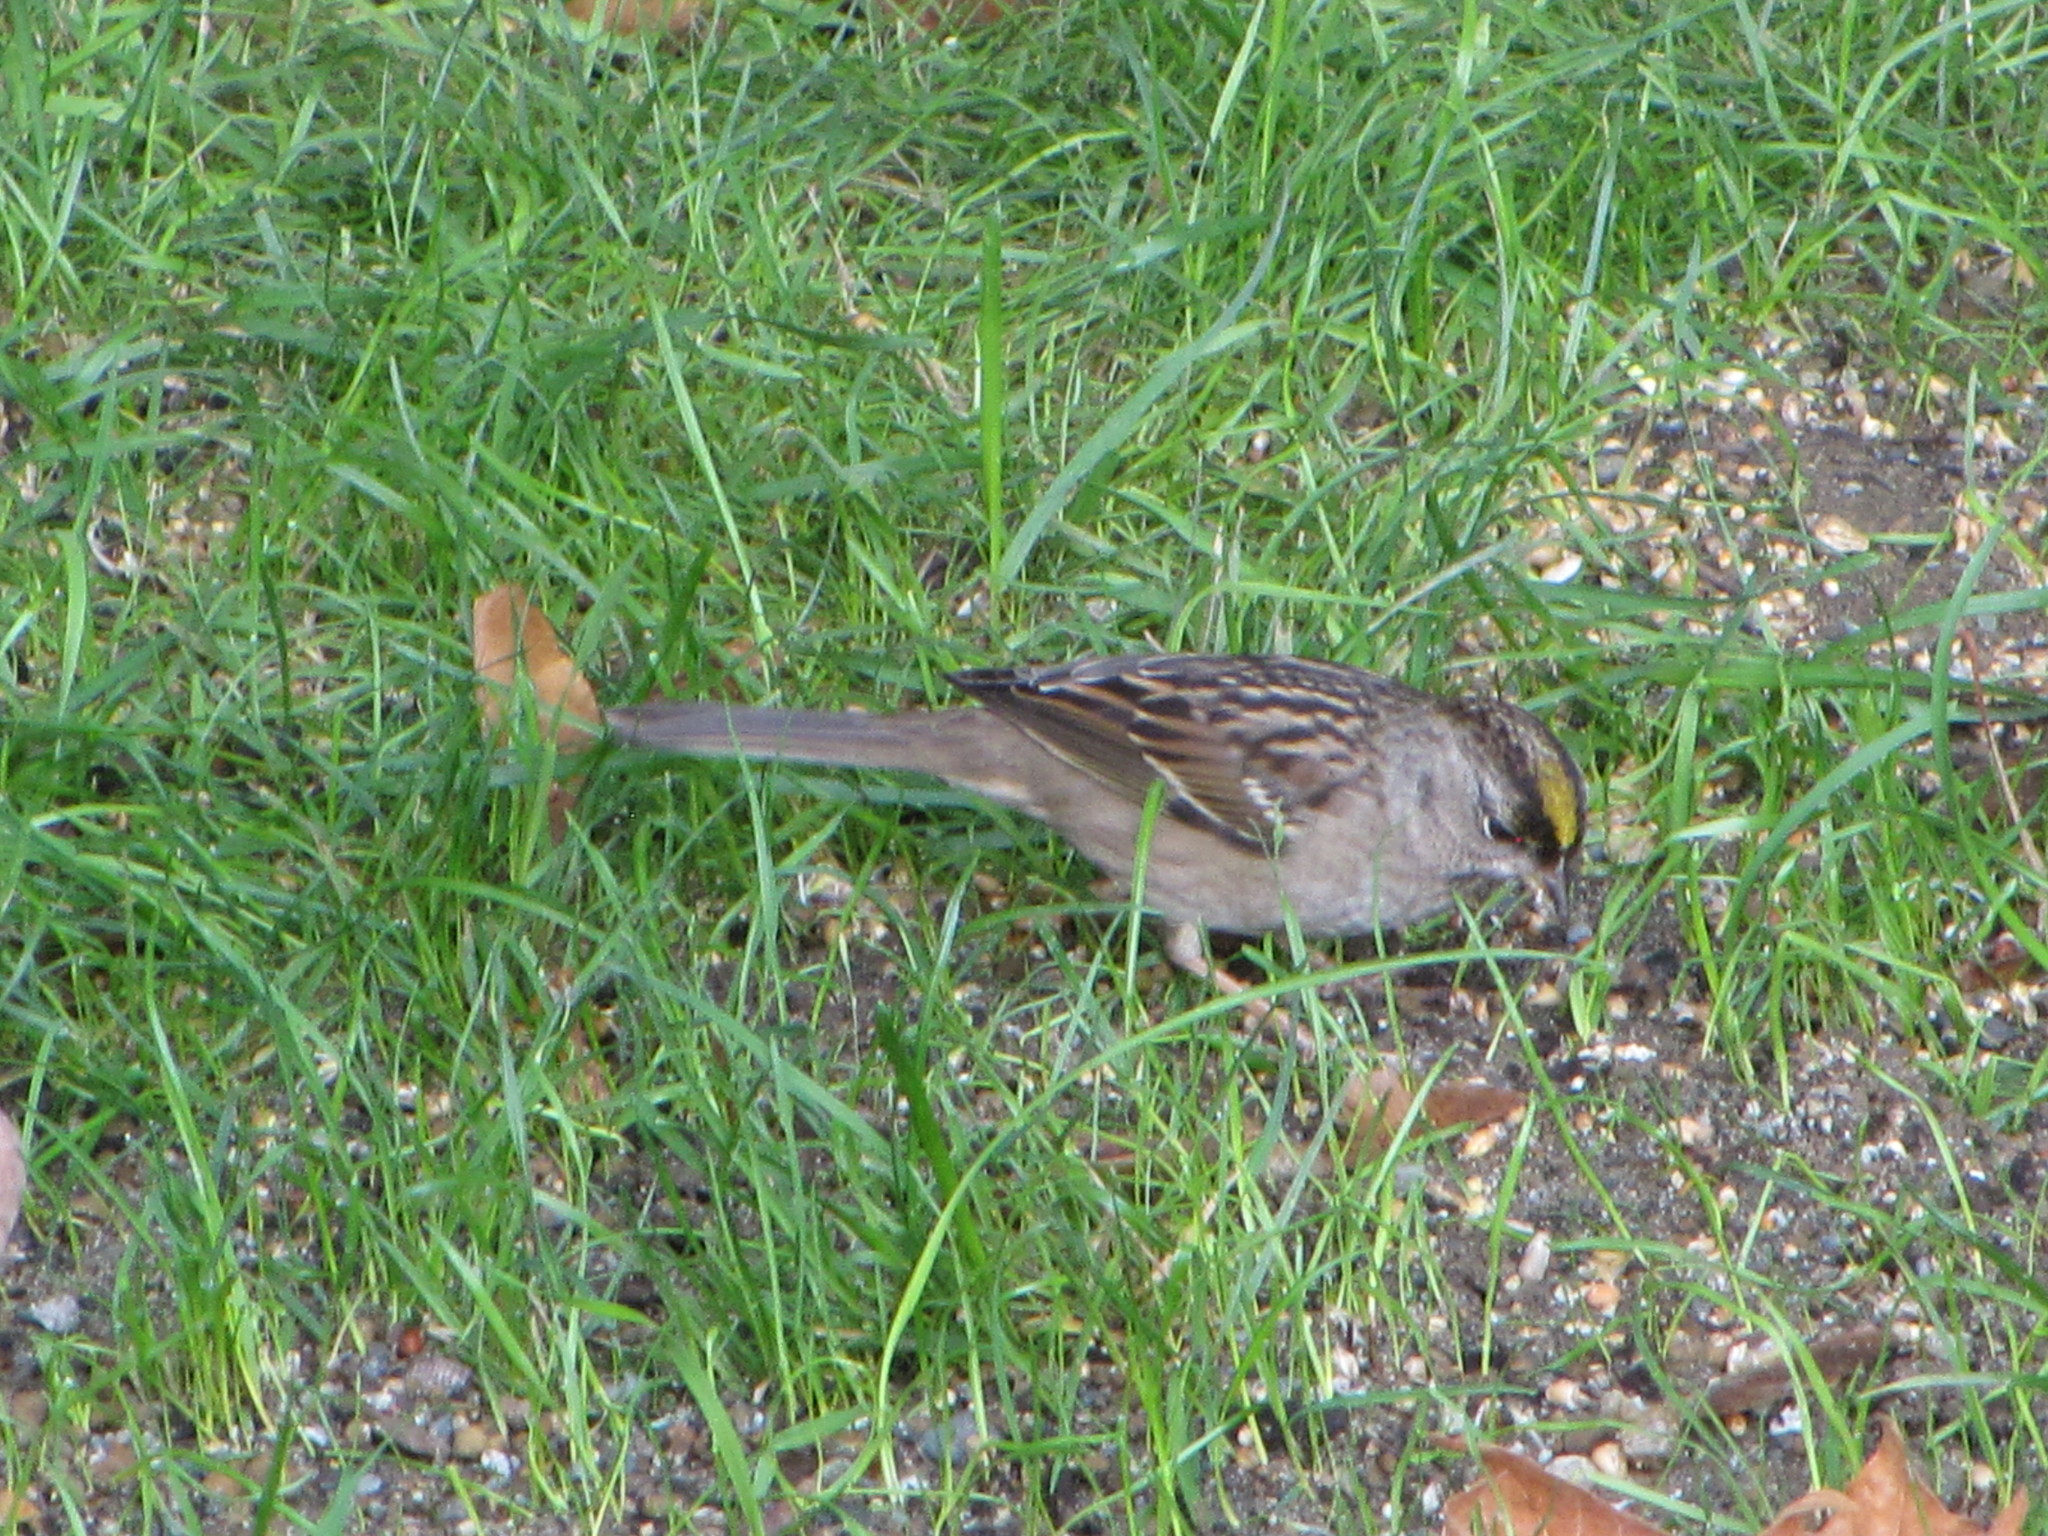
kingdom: Animalia
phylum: Chordata
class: Aves
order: Passeriformes
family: Passerellidae
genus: Zonotrichia
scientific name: Zonotrichia atricapilla
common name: Golden-crowned sparrow
